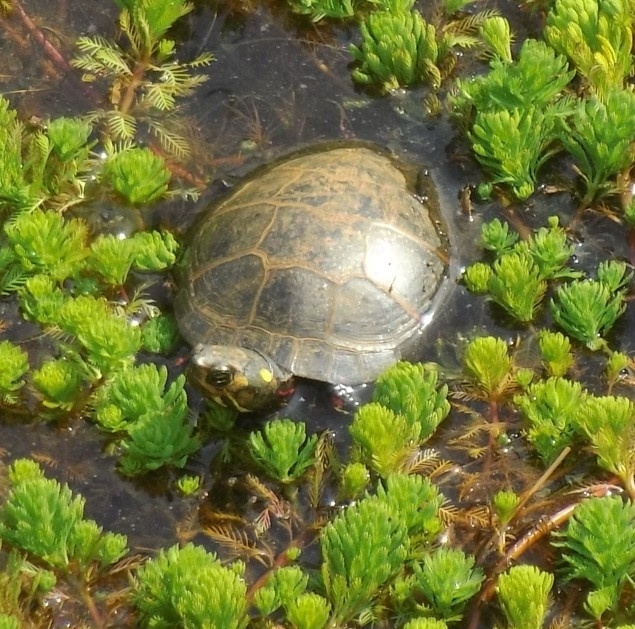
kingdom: Animalia
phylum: Chordata
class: Testudines
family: Emydidae
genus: Chrysemys
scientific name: Chrysemys picta
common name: Painted turtle
